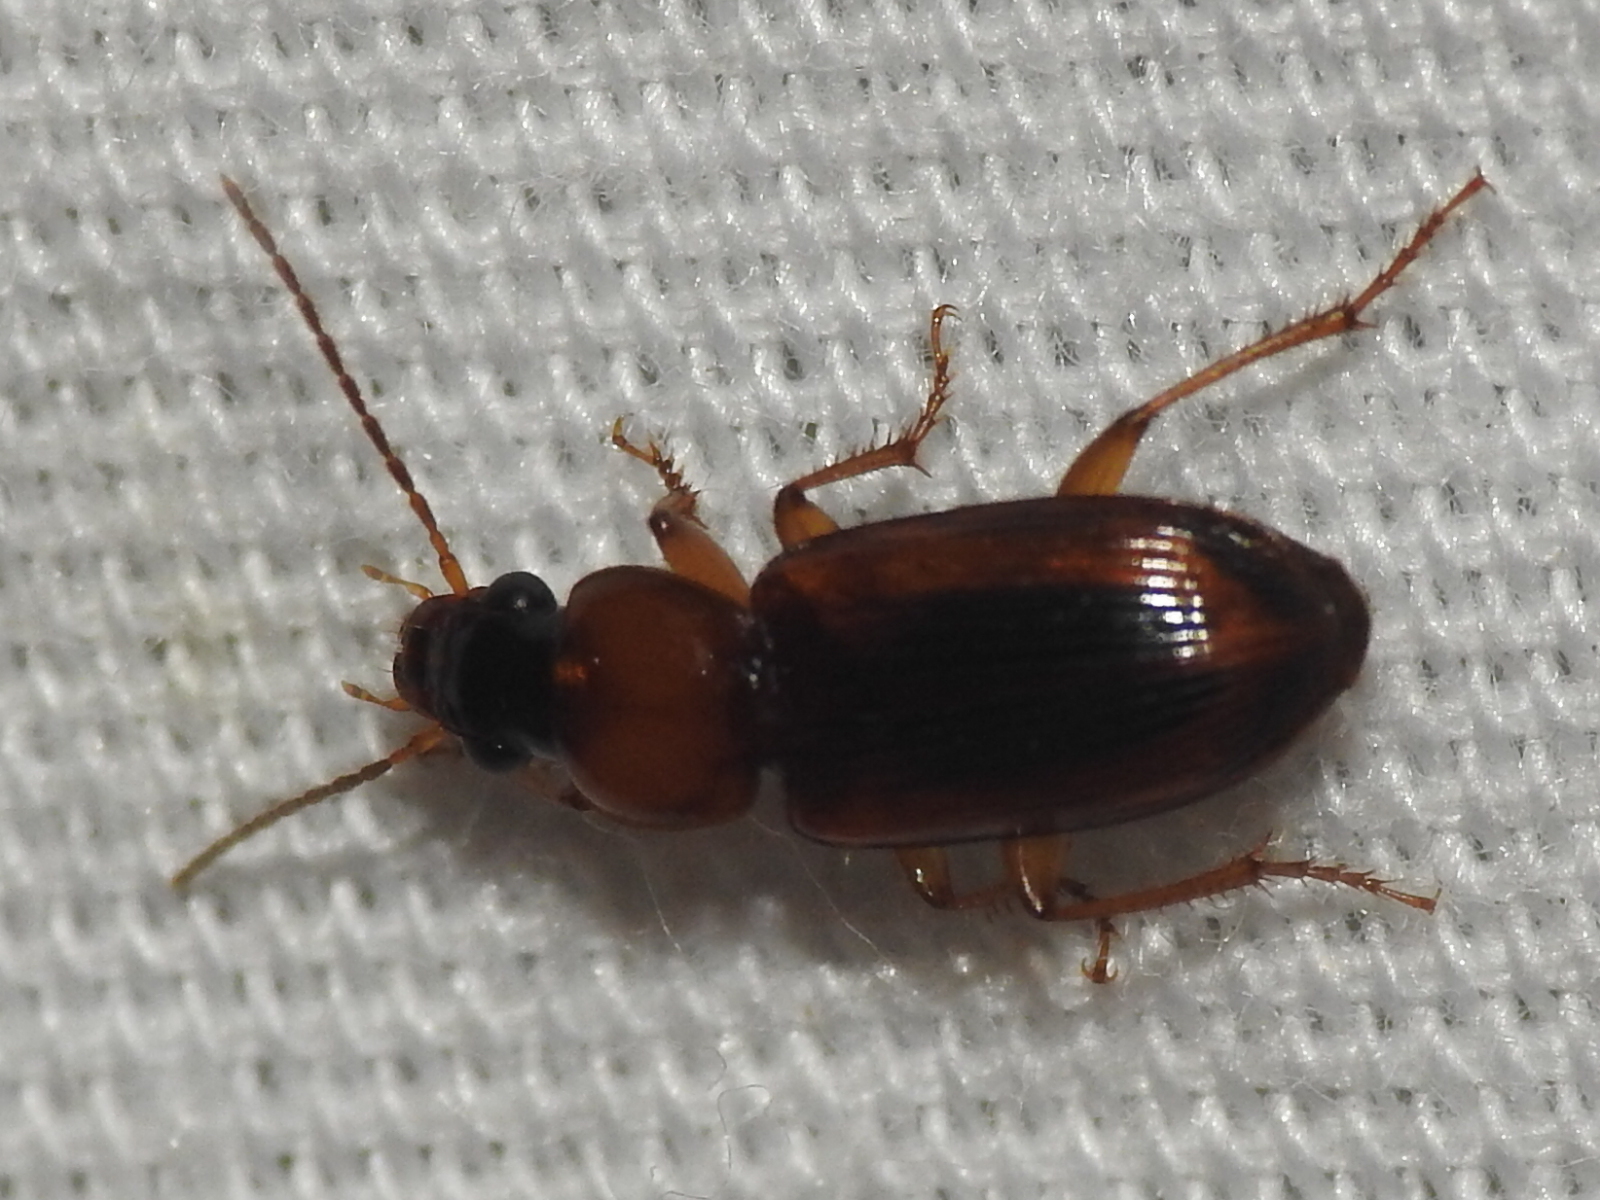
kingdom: Animalia
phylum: Arthropoda
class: Insecta
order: Coleoptera
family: Carabidae
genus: Stenolophus
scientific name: Stenolophus dissimilis
